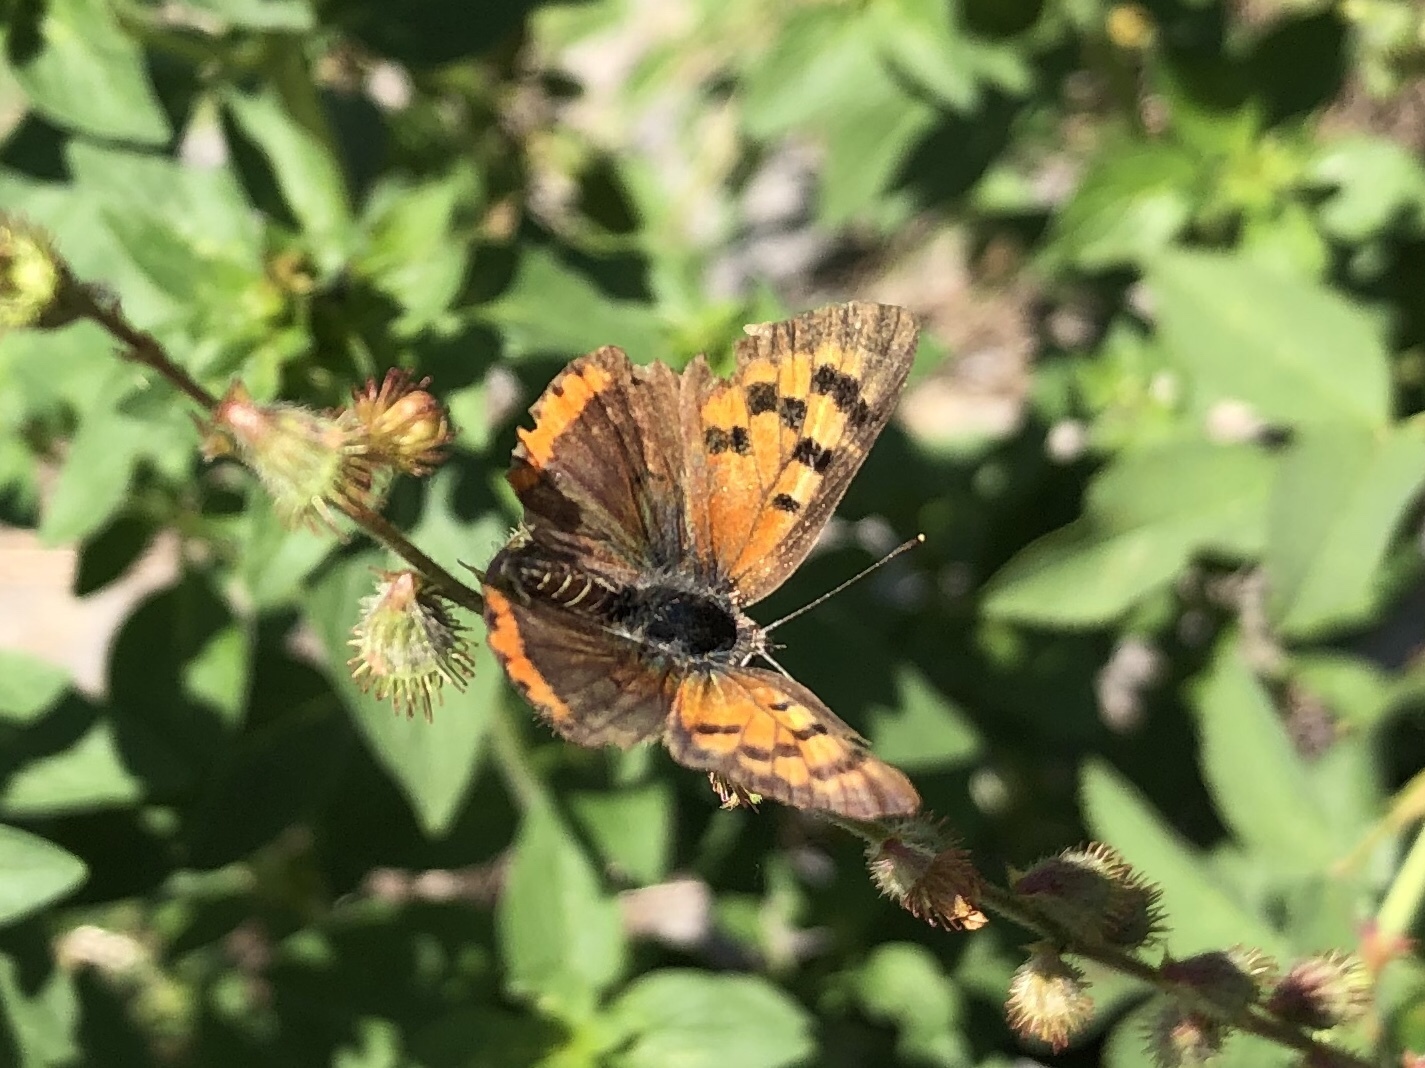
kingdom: Animalia
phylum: Arthropoda
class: Insecta
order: Lepidoptera
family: Lycaenidae
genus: Lycaena
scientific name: Lycaena phlaeas
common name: Small copper
